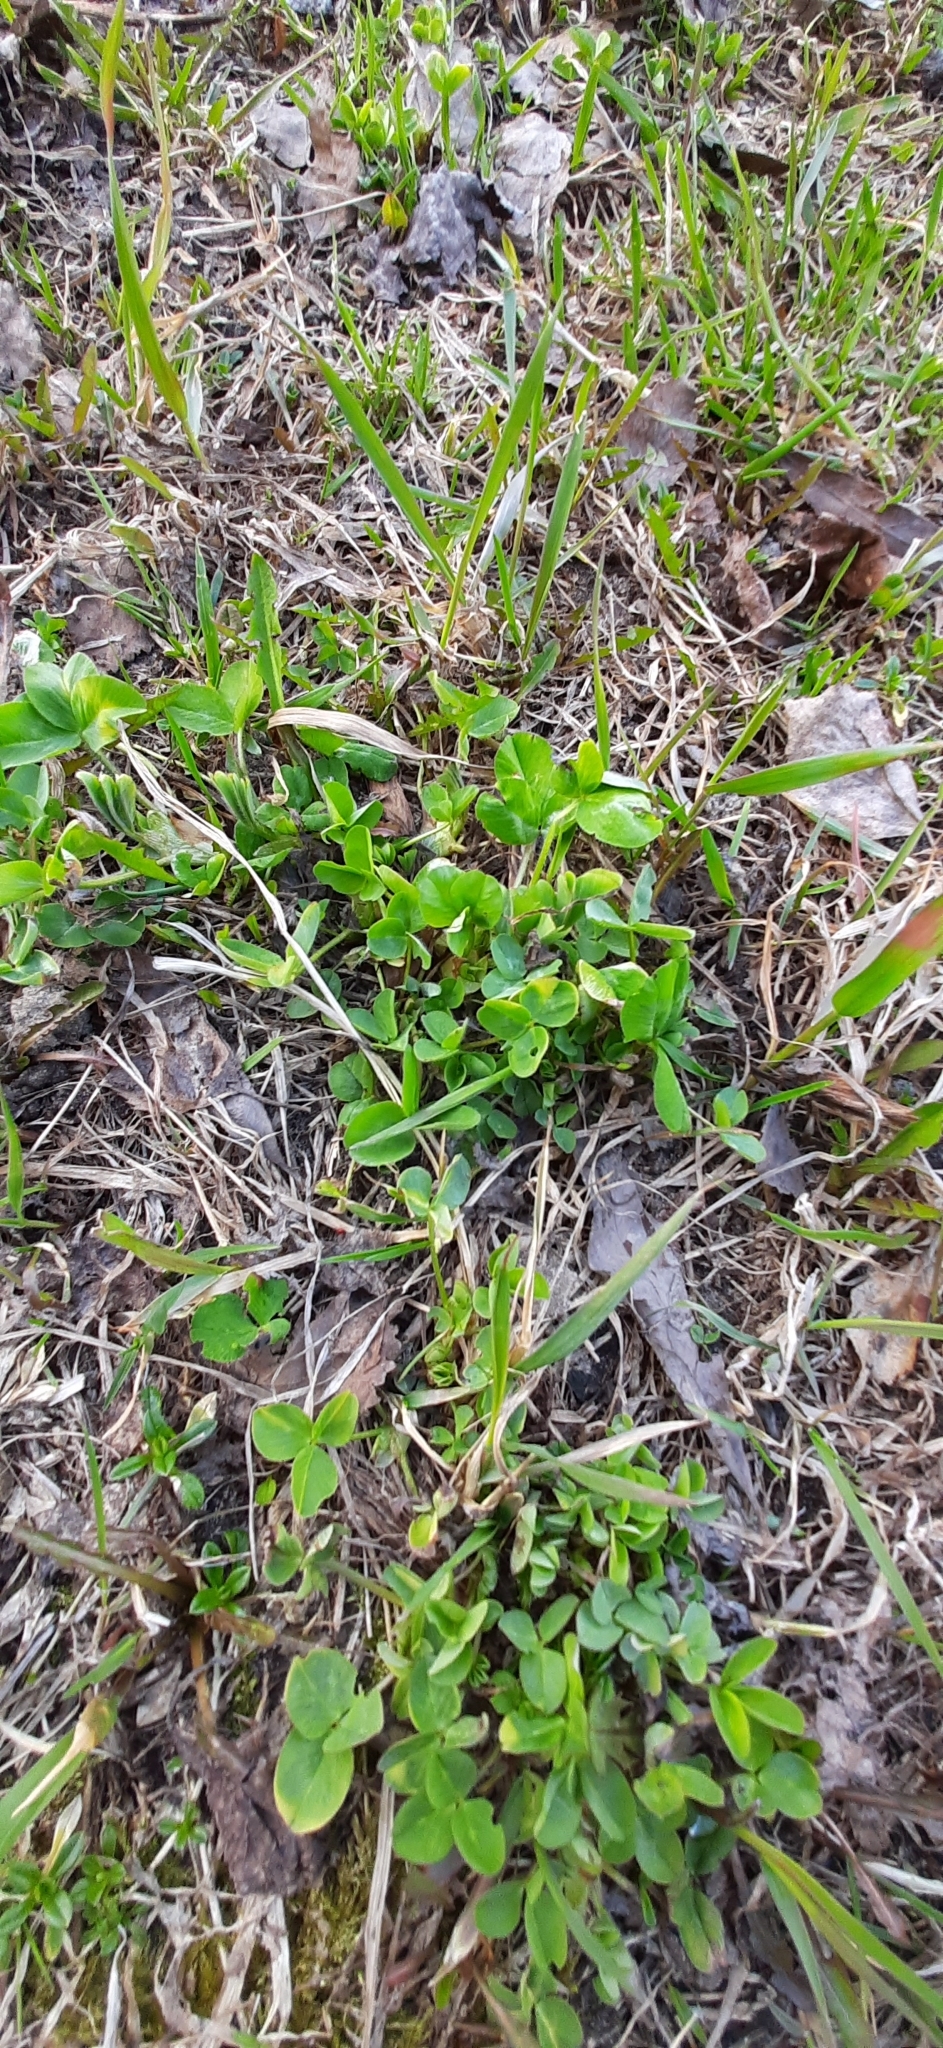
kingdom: Plantae
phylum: Tracheophyta
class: Magnoliopsida
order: Fabales
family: Fabaceae
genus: Trifolium
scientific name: Trifolium pratense
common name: Red clover
